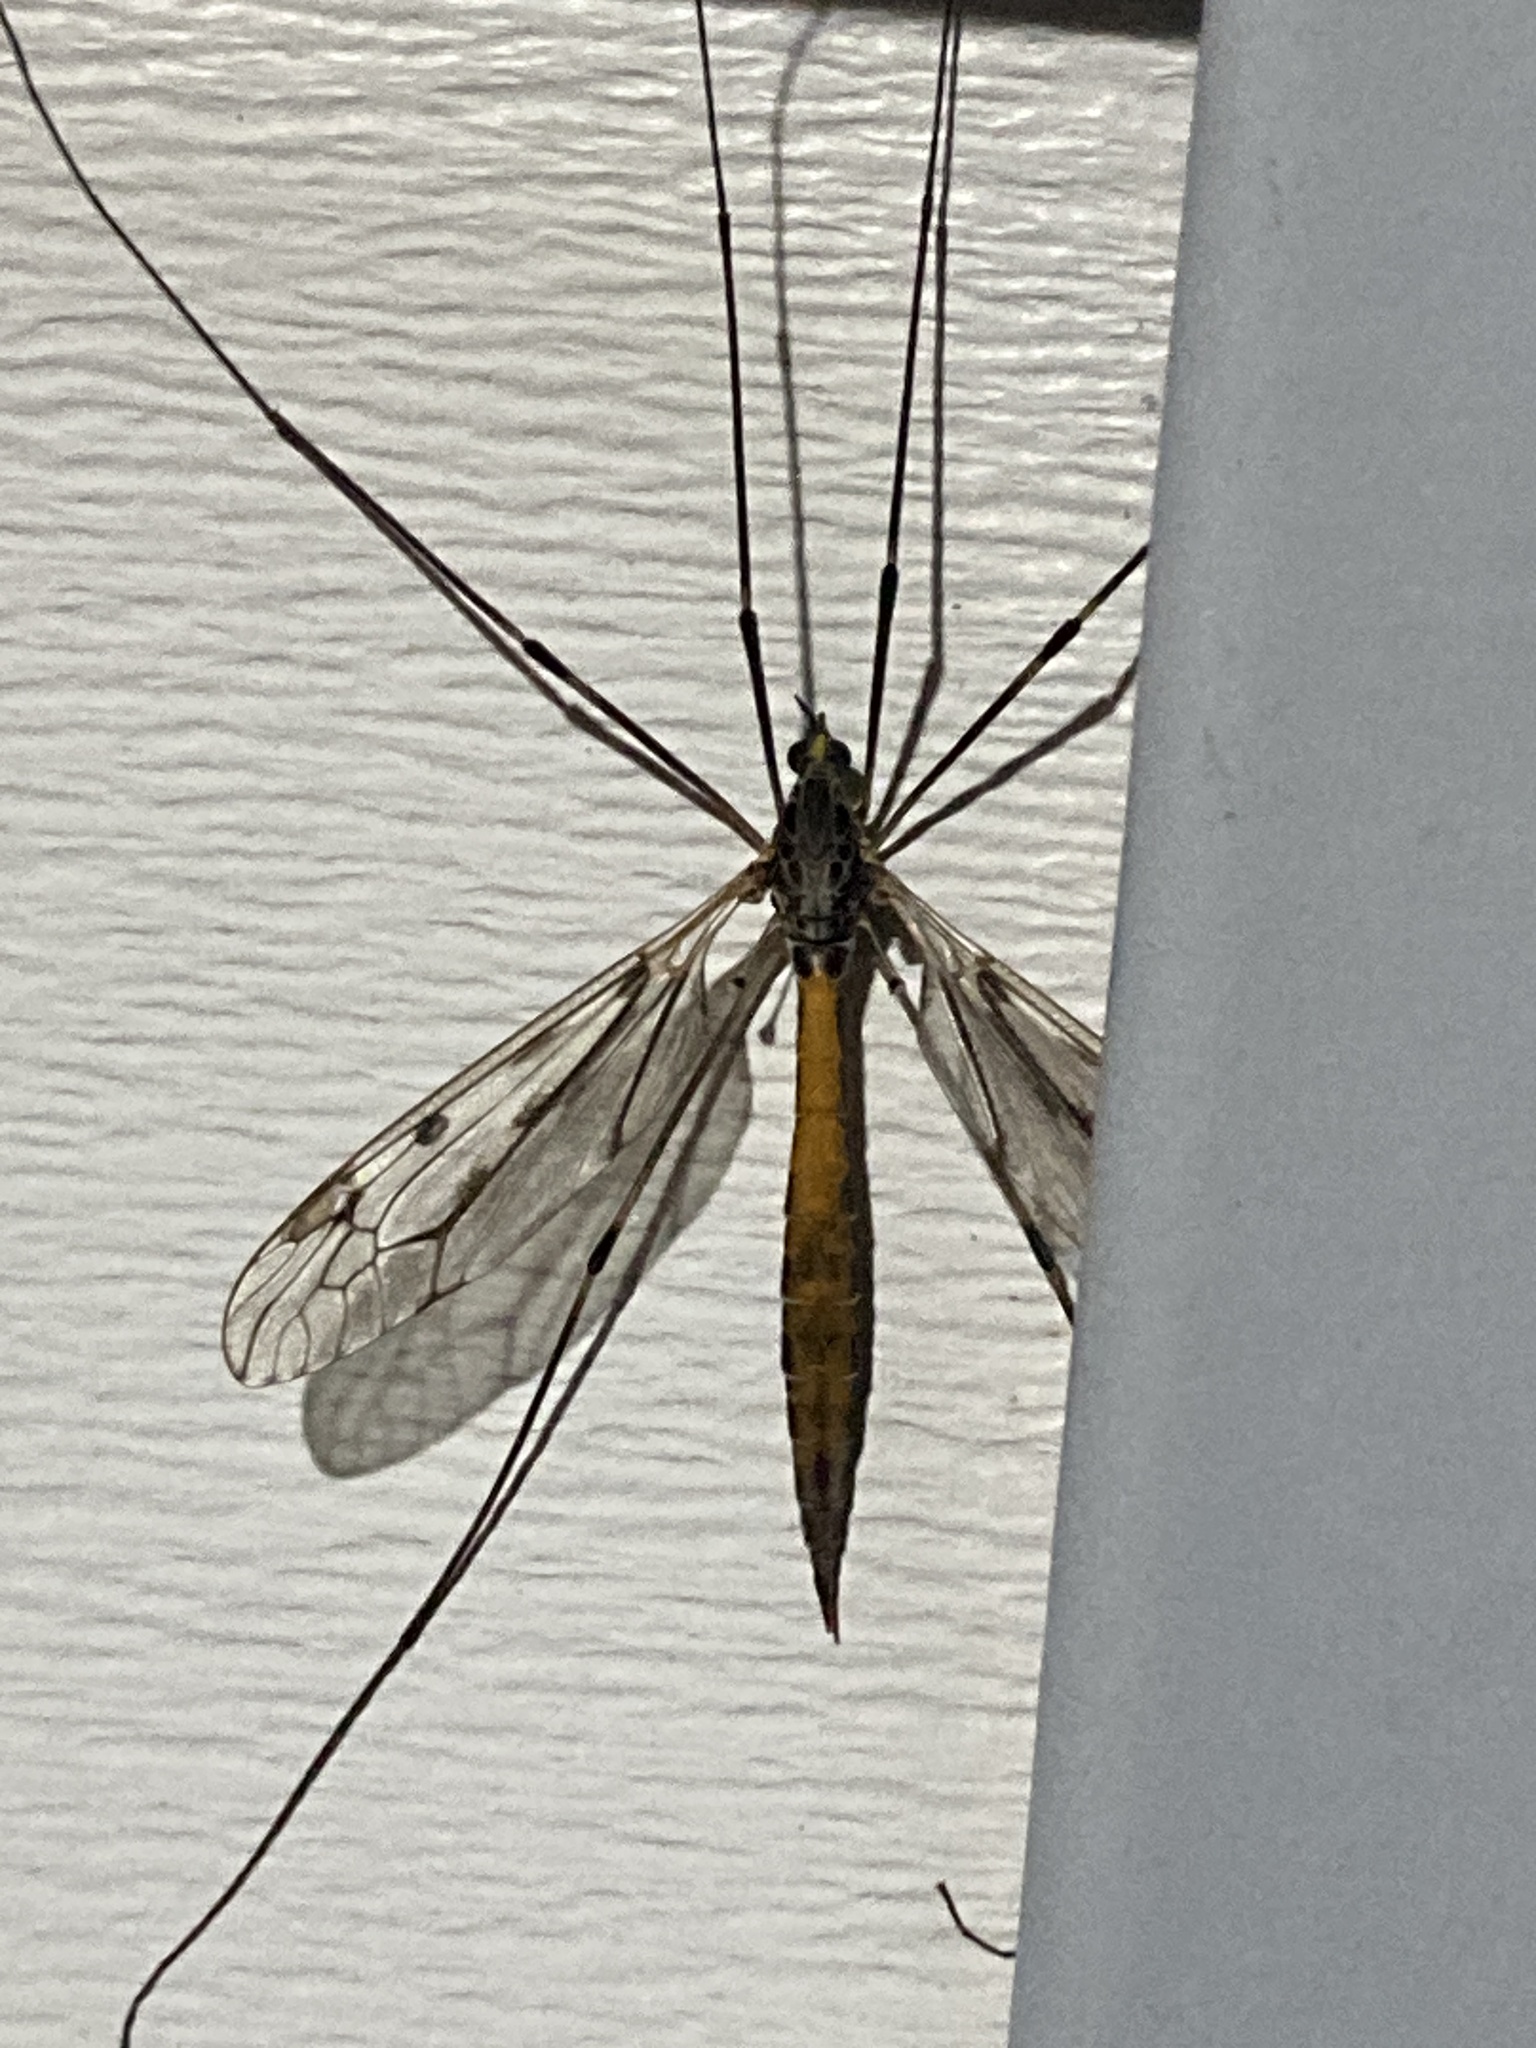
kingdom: Animalia
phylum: Arthropoda
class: Insecta
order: Diptera
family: Tipulidae
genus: Tipula
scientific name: Tipula abdominalis
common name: Giant crane fly
